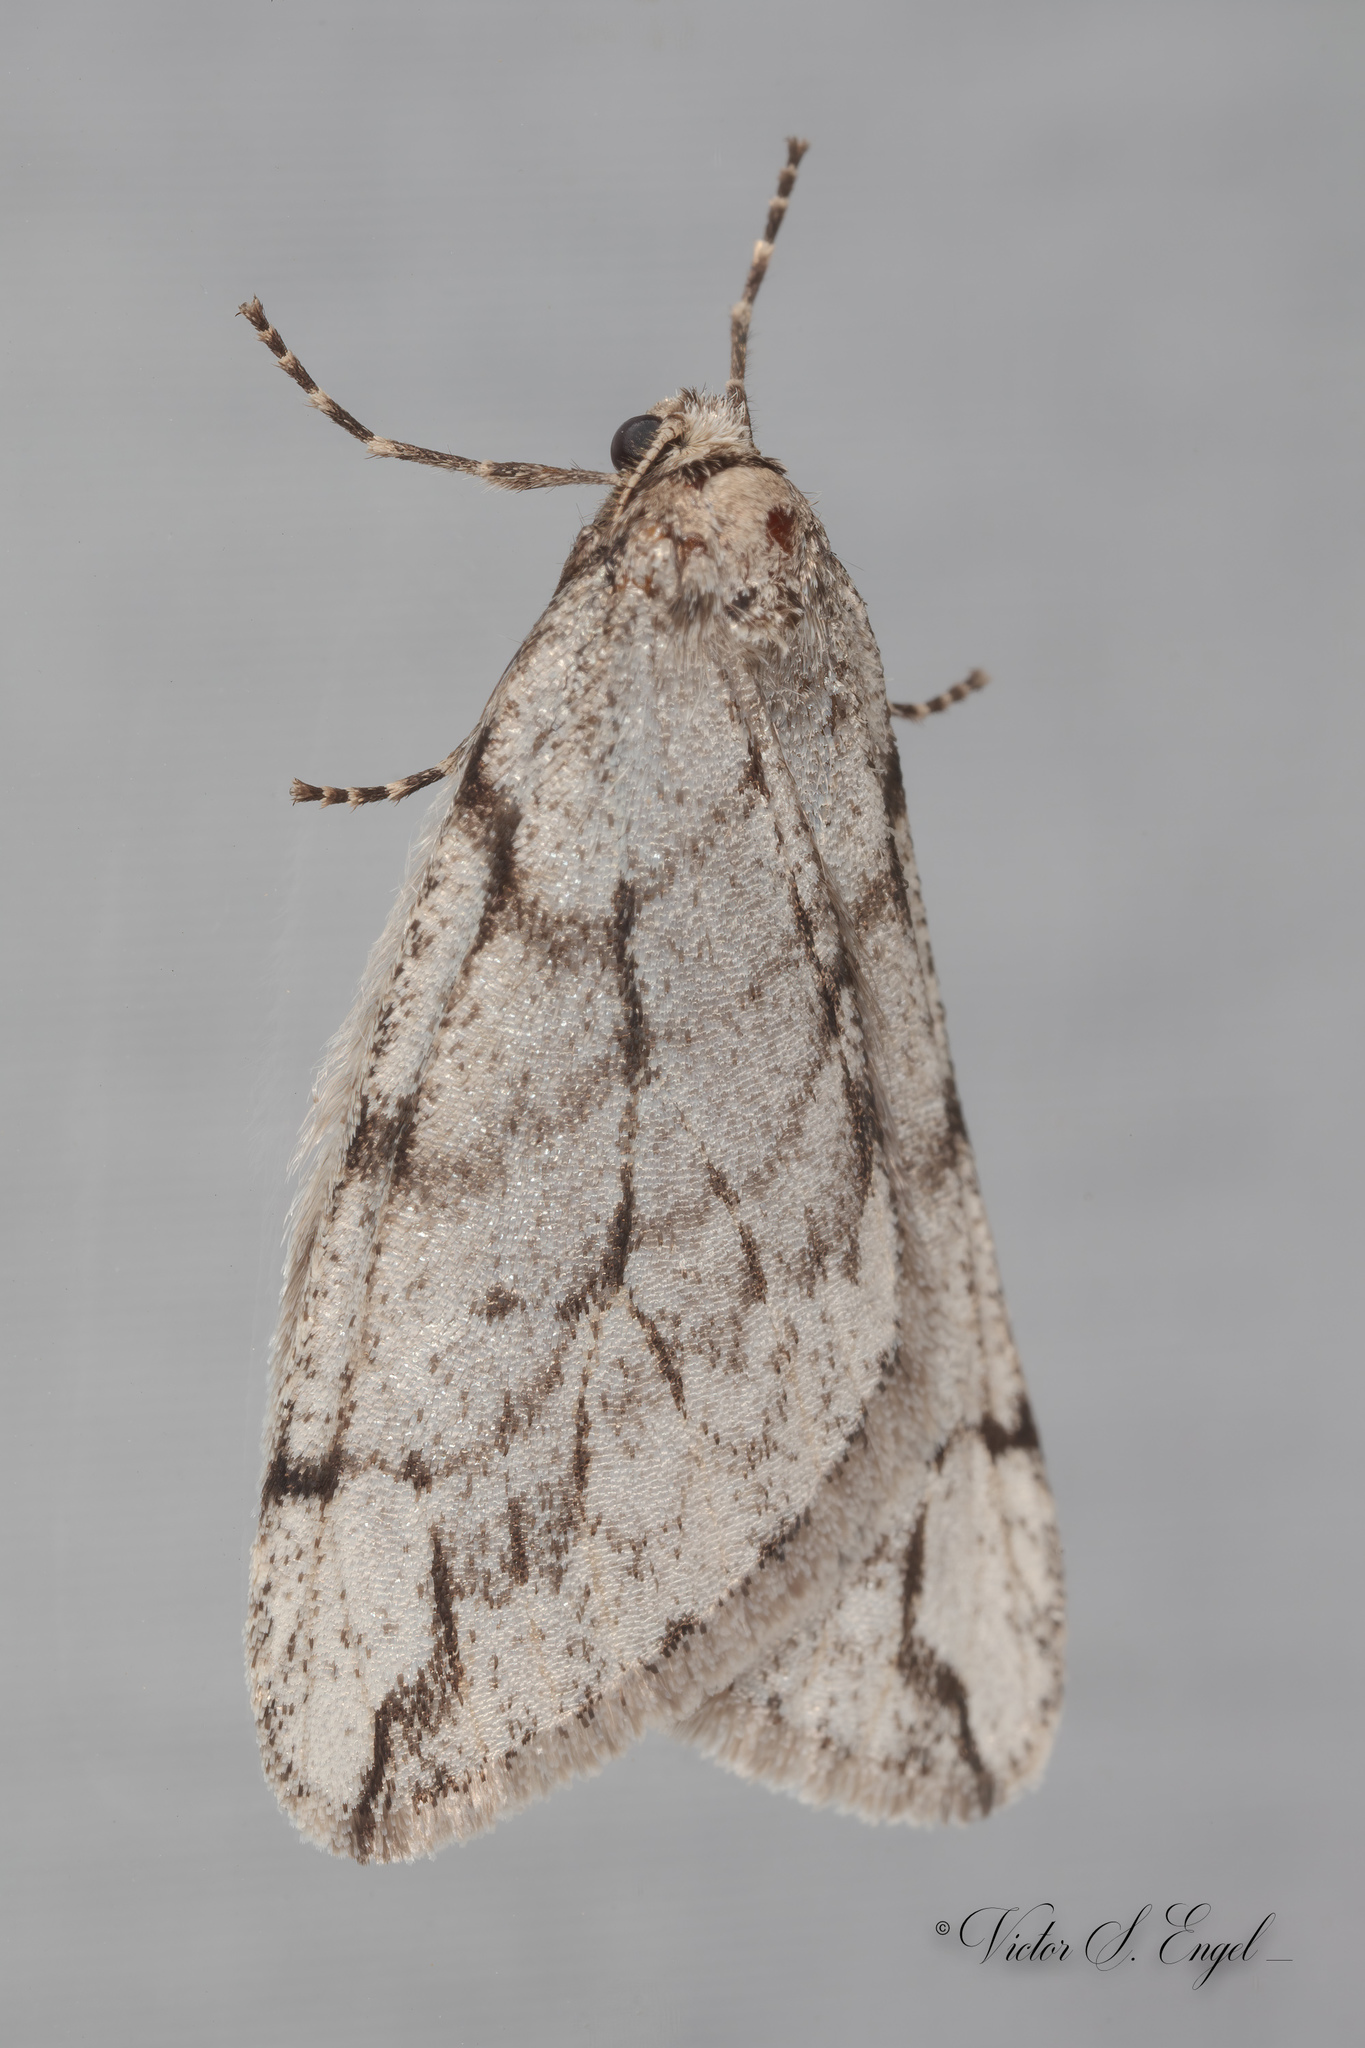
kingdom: Animalia
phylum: Arthropoda
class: Insecta
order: Lepidoptera
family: Geometridae
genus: Paleacrita
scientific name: Paleacrita vernata
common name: Spring cankerworm
